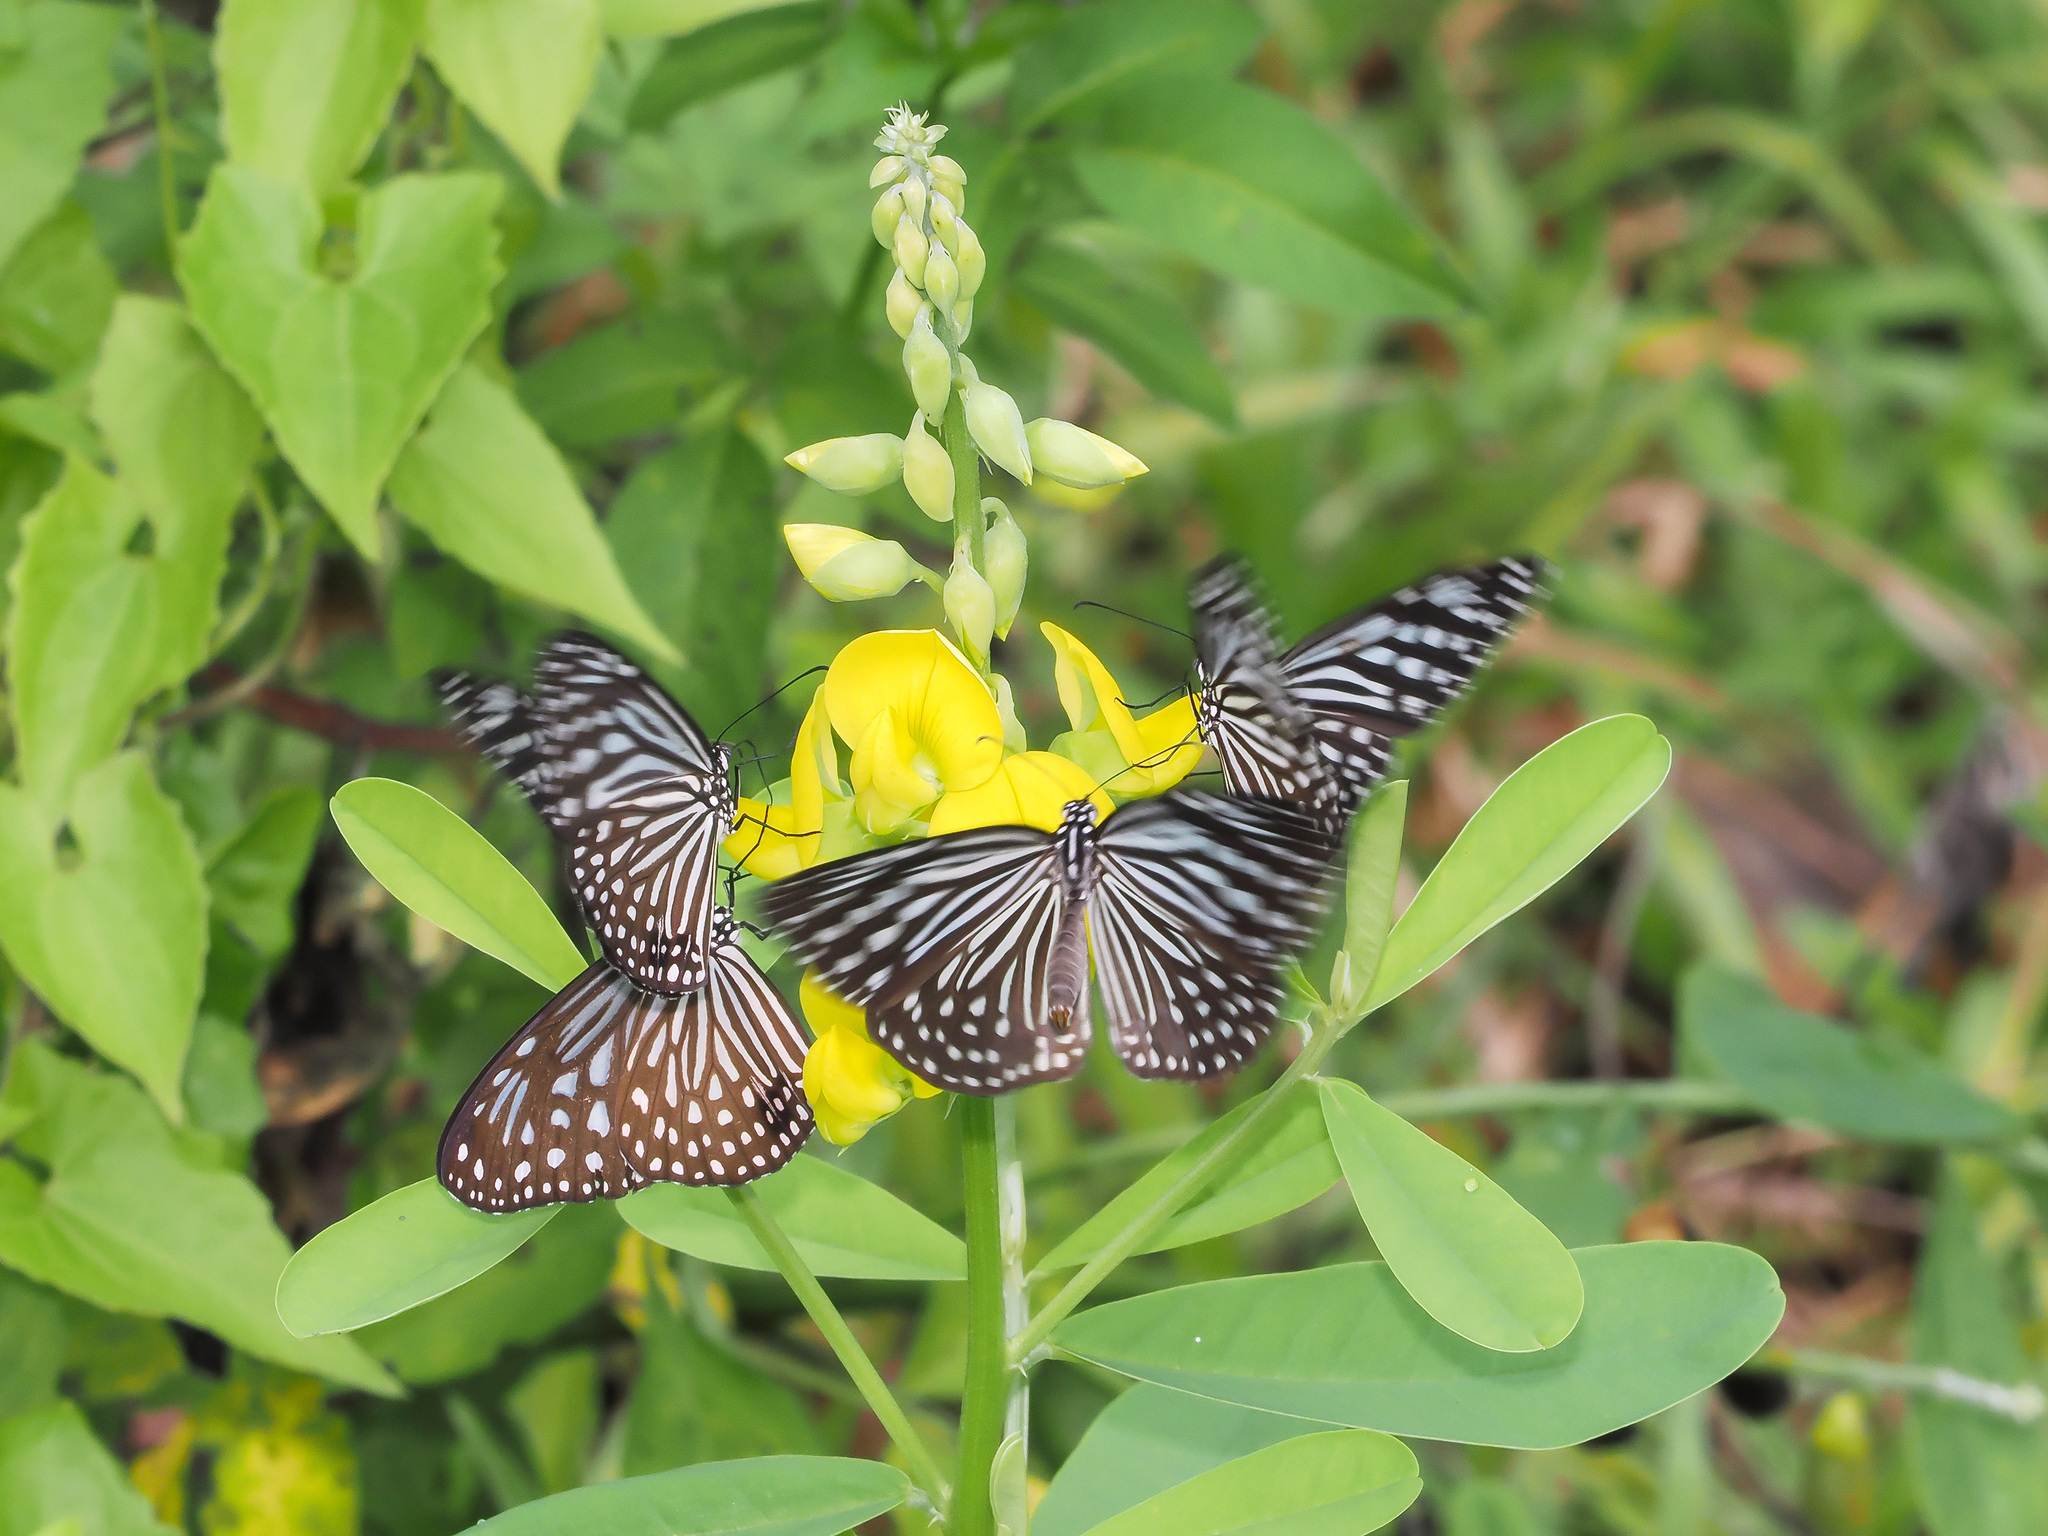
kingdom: Animalia
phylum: Arthropoda
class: Insecta
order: Lepidoptera
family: Nymphalidae
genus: Parantica
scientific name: Parantica agleoides
